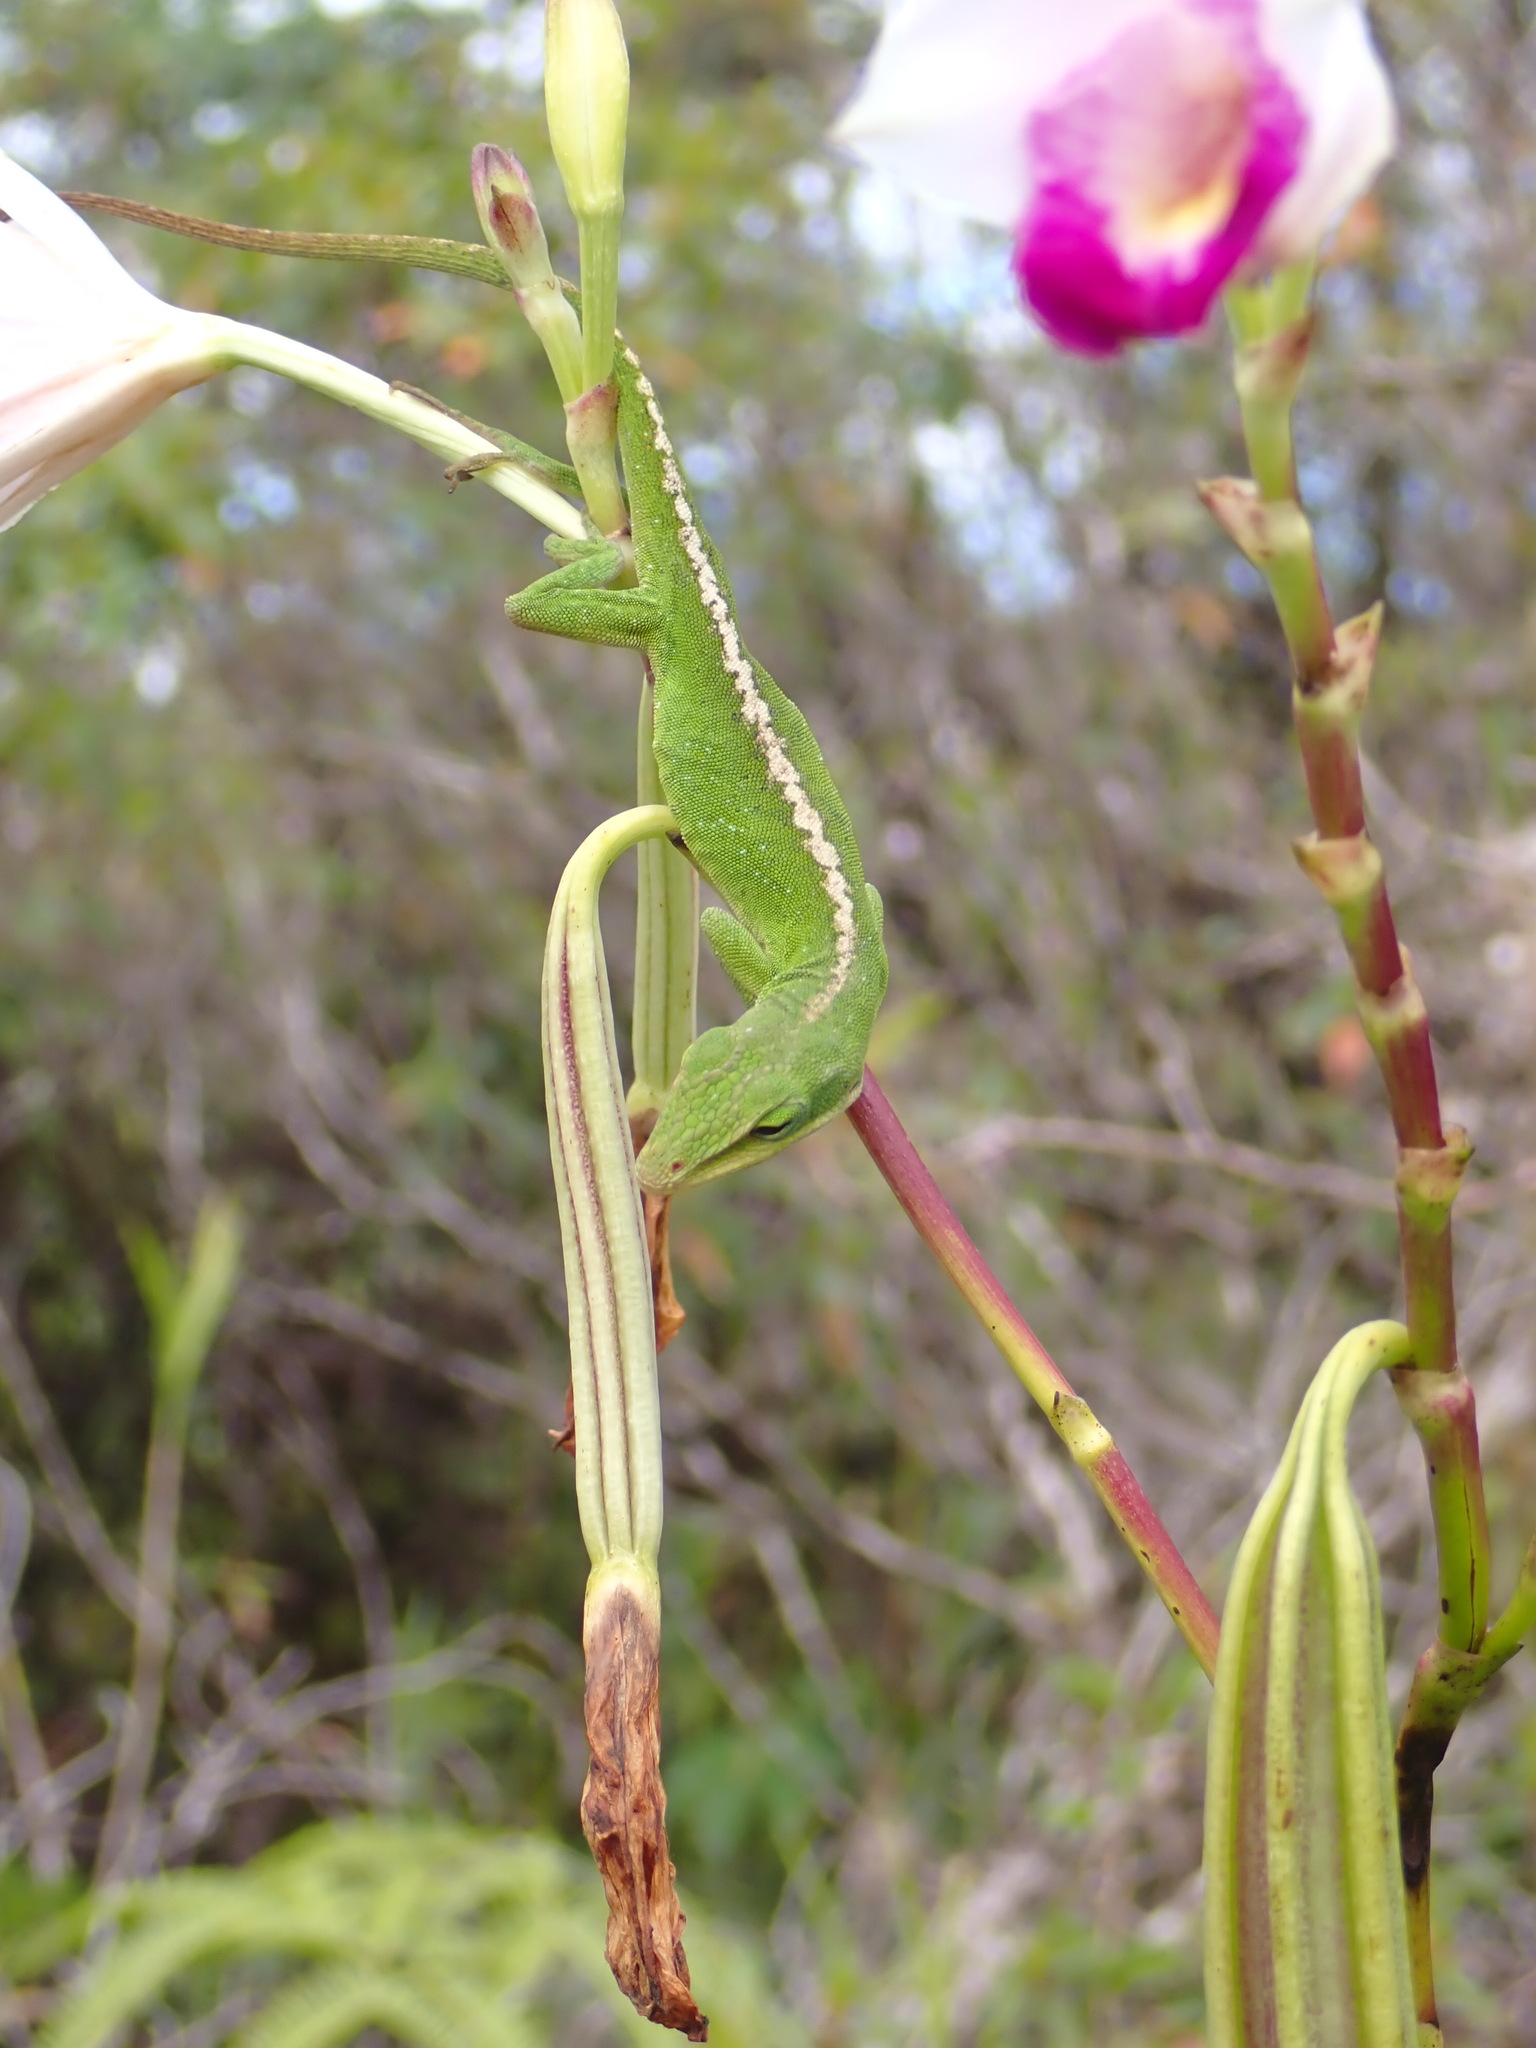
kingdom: Animalia
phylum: Chordata
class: Squamata
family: Dactyloidae
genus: Anolis
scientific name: Anolis carolinensis
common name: Green anole
